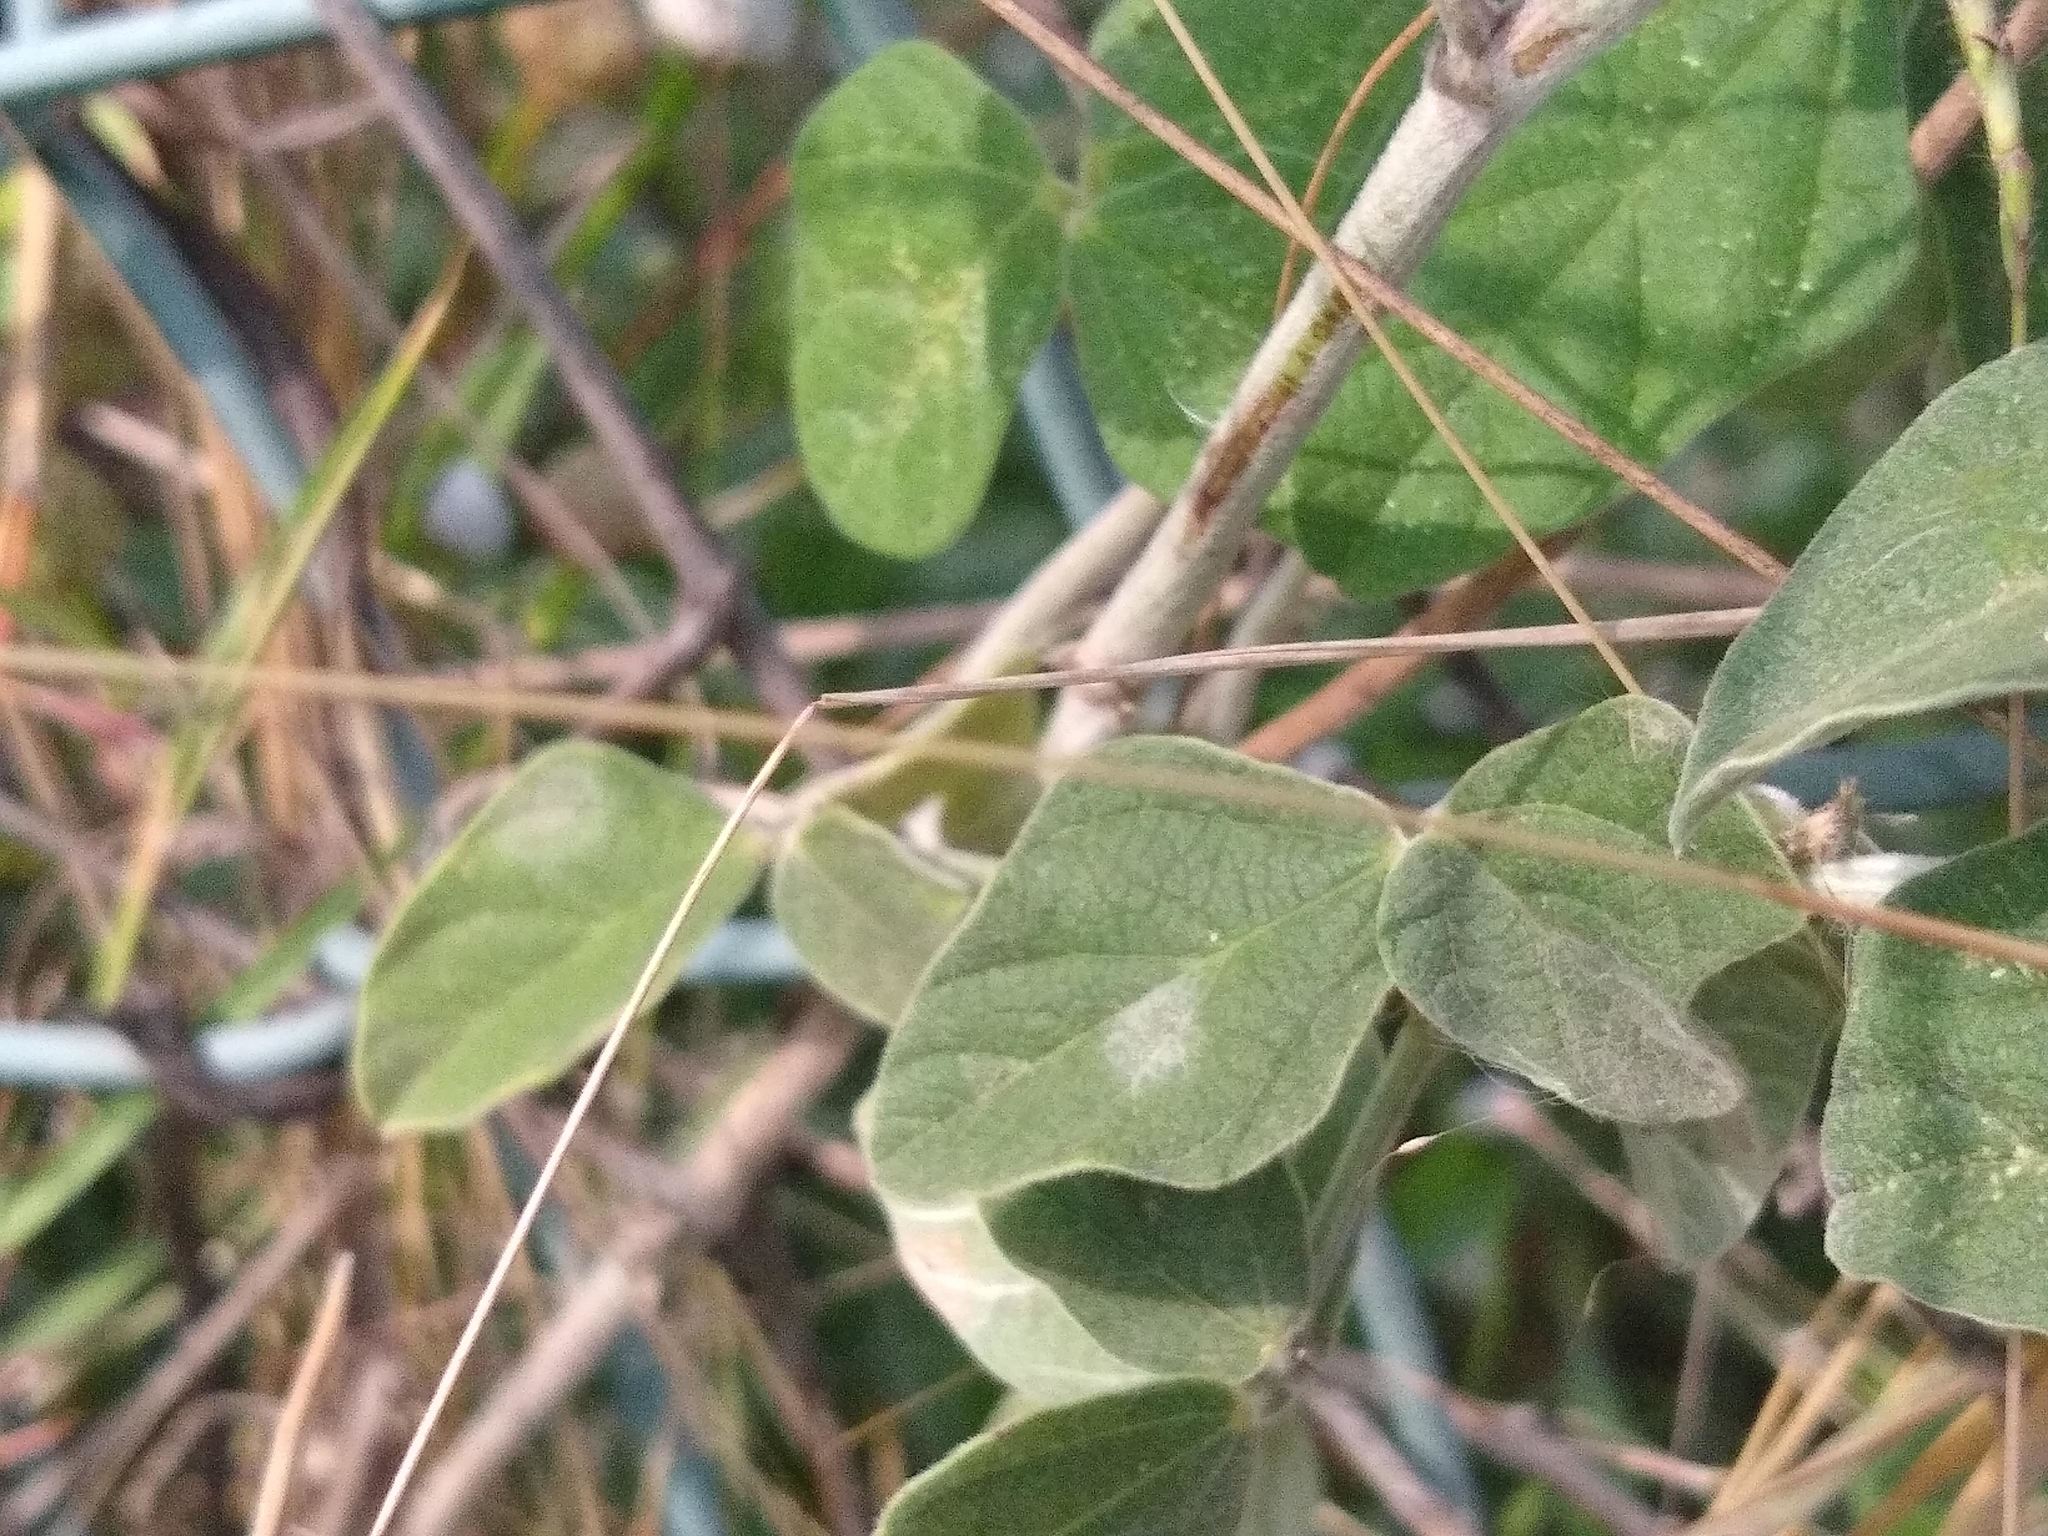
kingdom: Plantae
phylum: Tracheophyta
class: Magnoliopsida
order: Fabales
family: Fabaceae
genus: Macroptilium
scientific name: Macroptilium atropurpureum
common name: Purple bushbean
